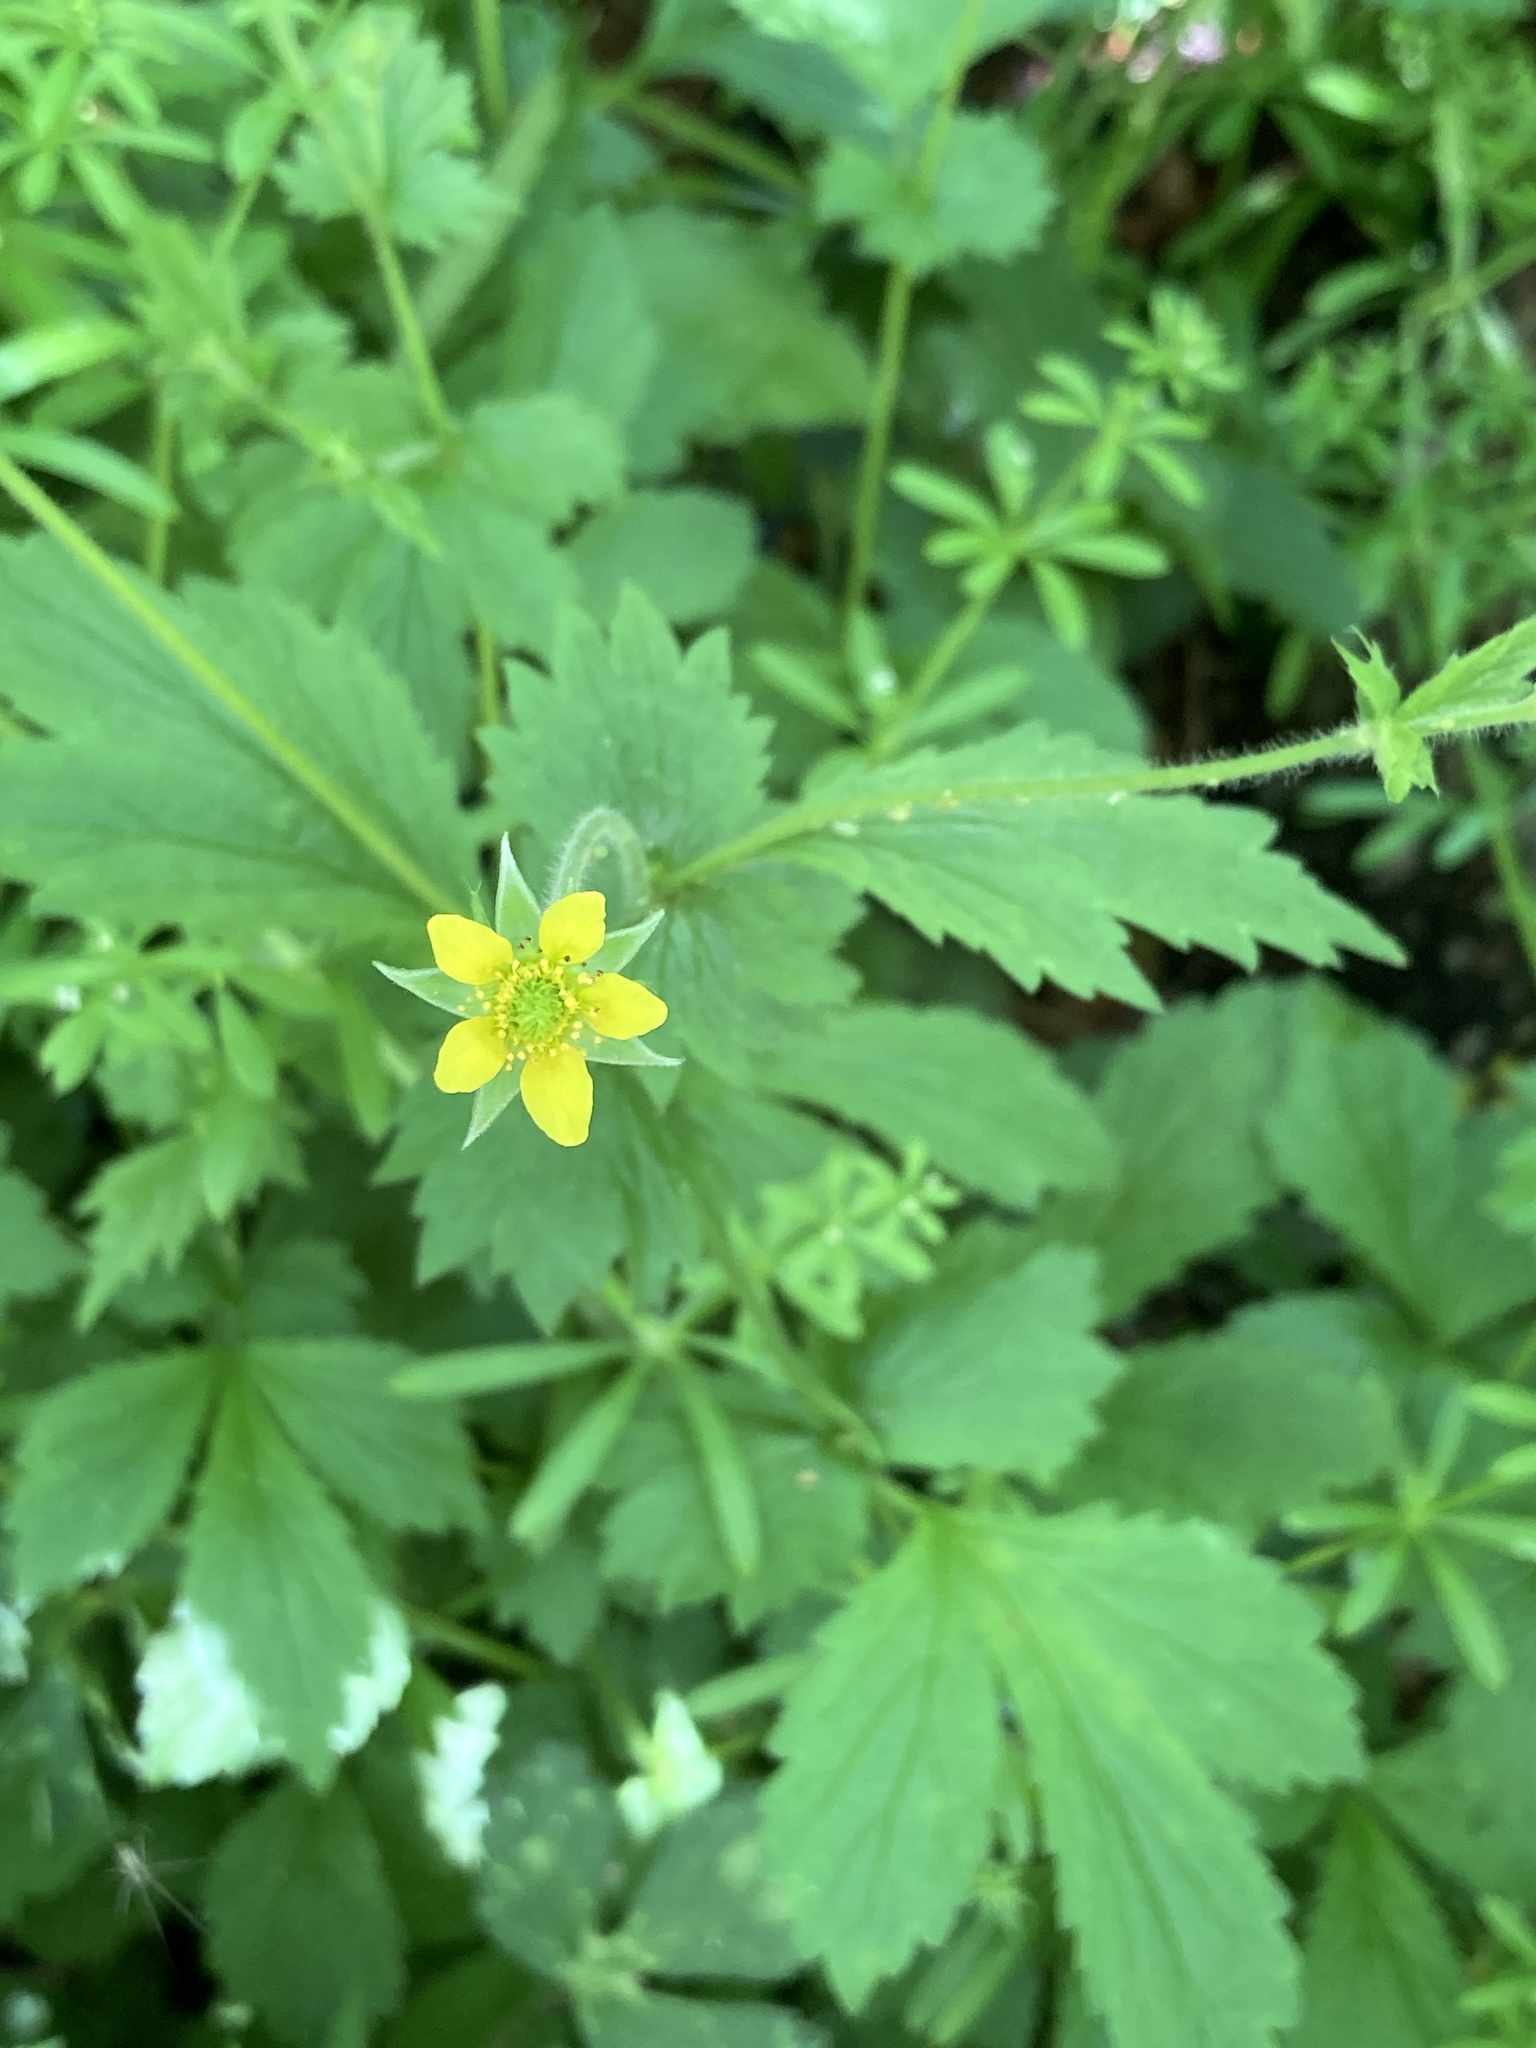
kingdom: Plantae
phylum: Tracheophyta
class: Magnoliopsida
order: Rosales
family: Rosaceae
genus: Geum
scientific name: Geum urbanum
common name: Wood avens
